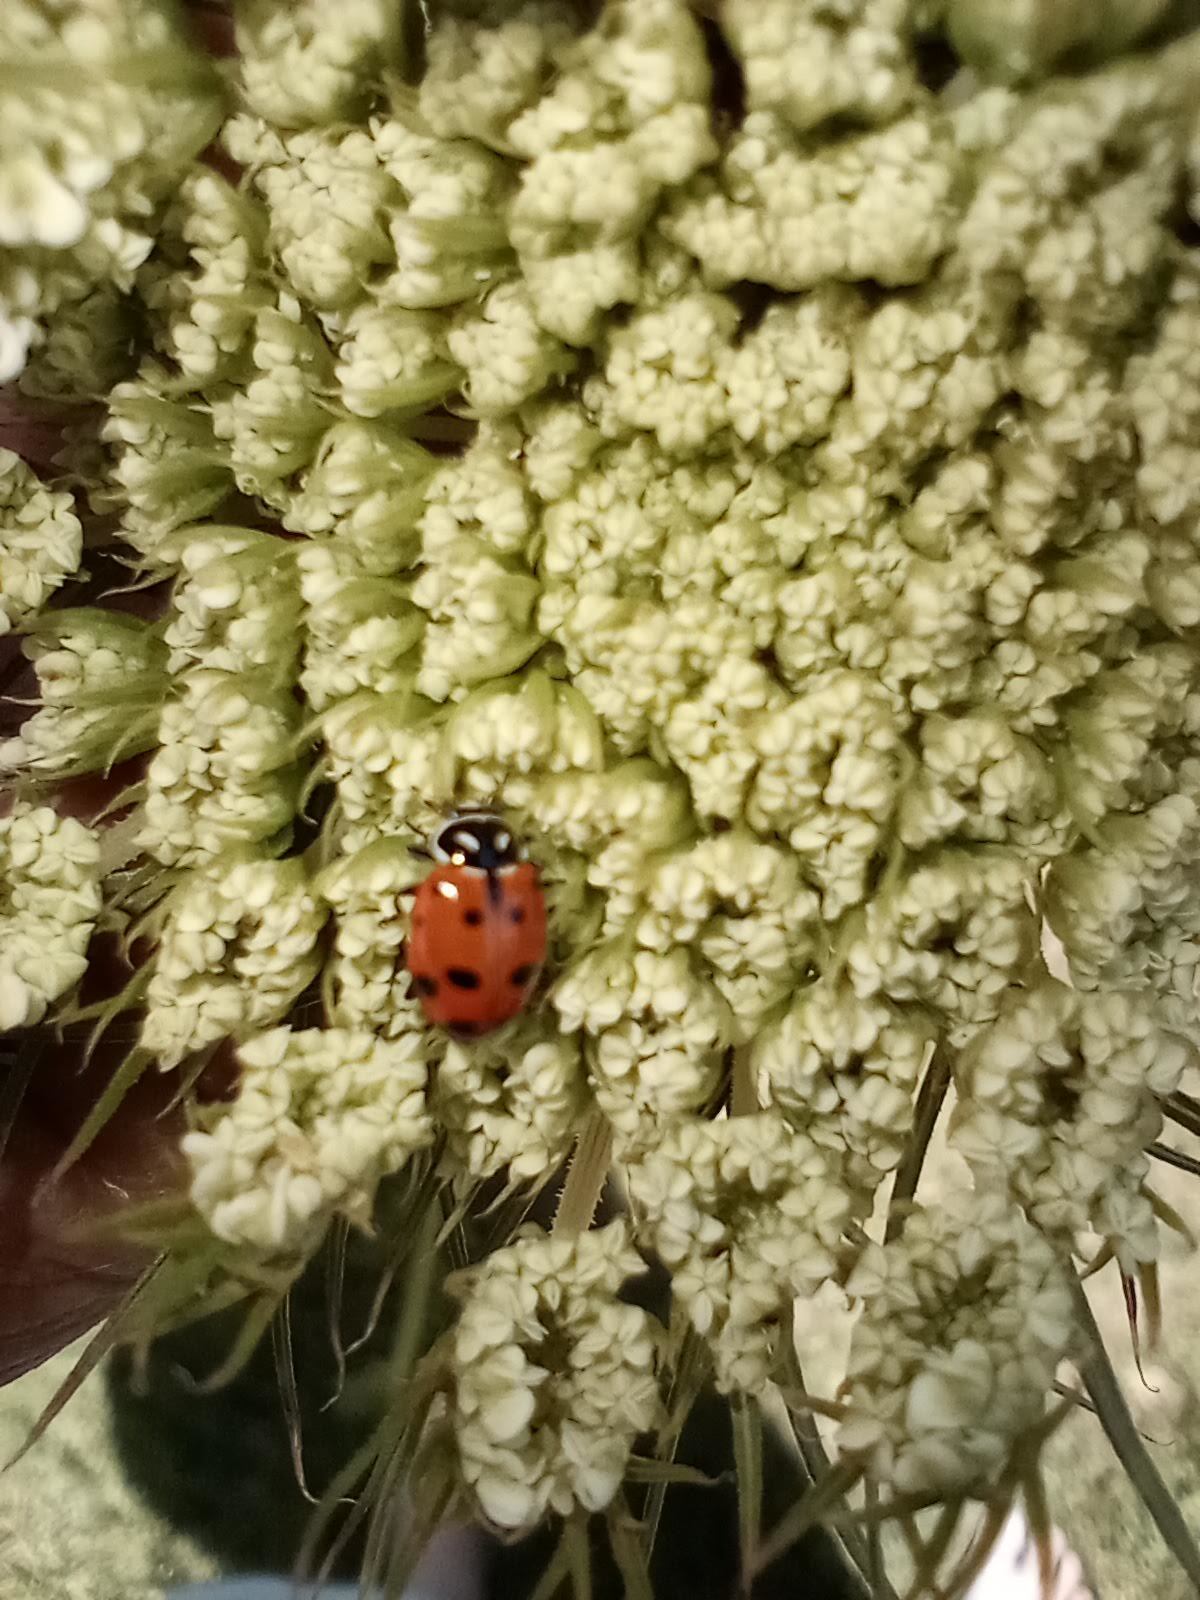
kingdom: Animalia
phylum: Arthropoda
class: Insecta
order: Coleoptera
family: Coccinellidae
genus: Hippodamia
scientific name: Hippodamia convergens
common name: Convergent lady beetle
